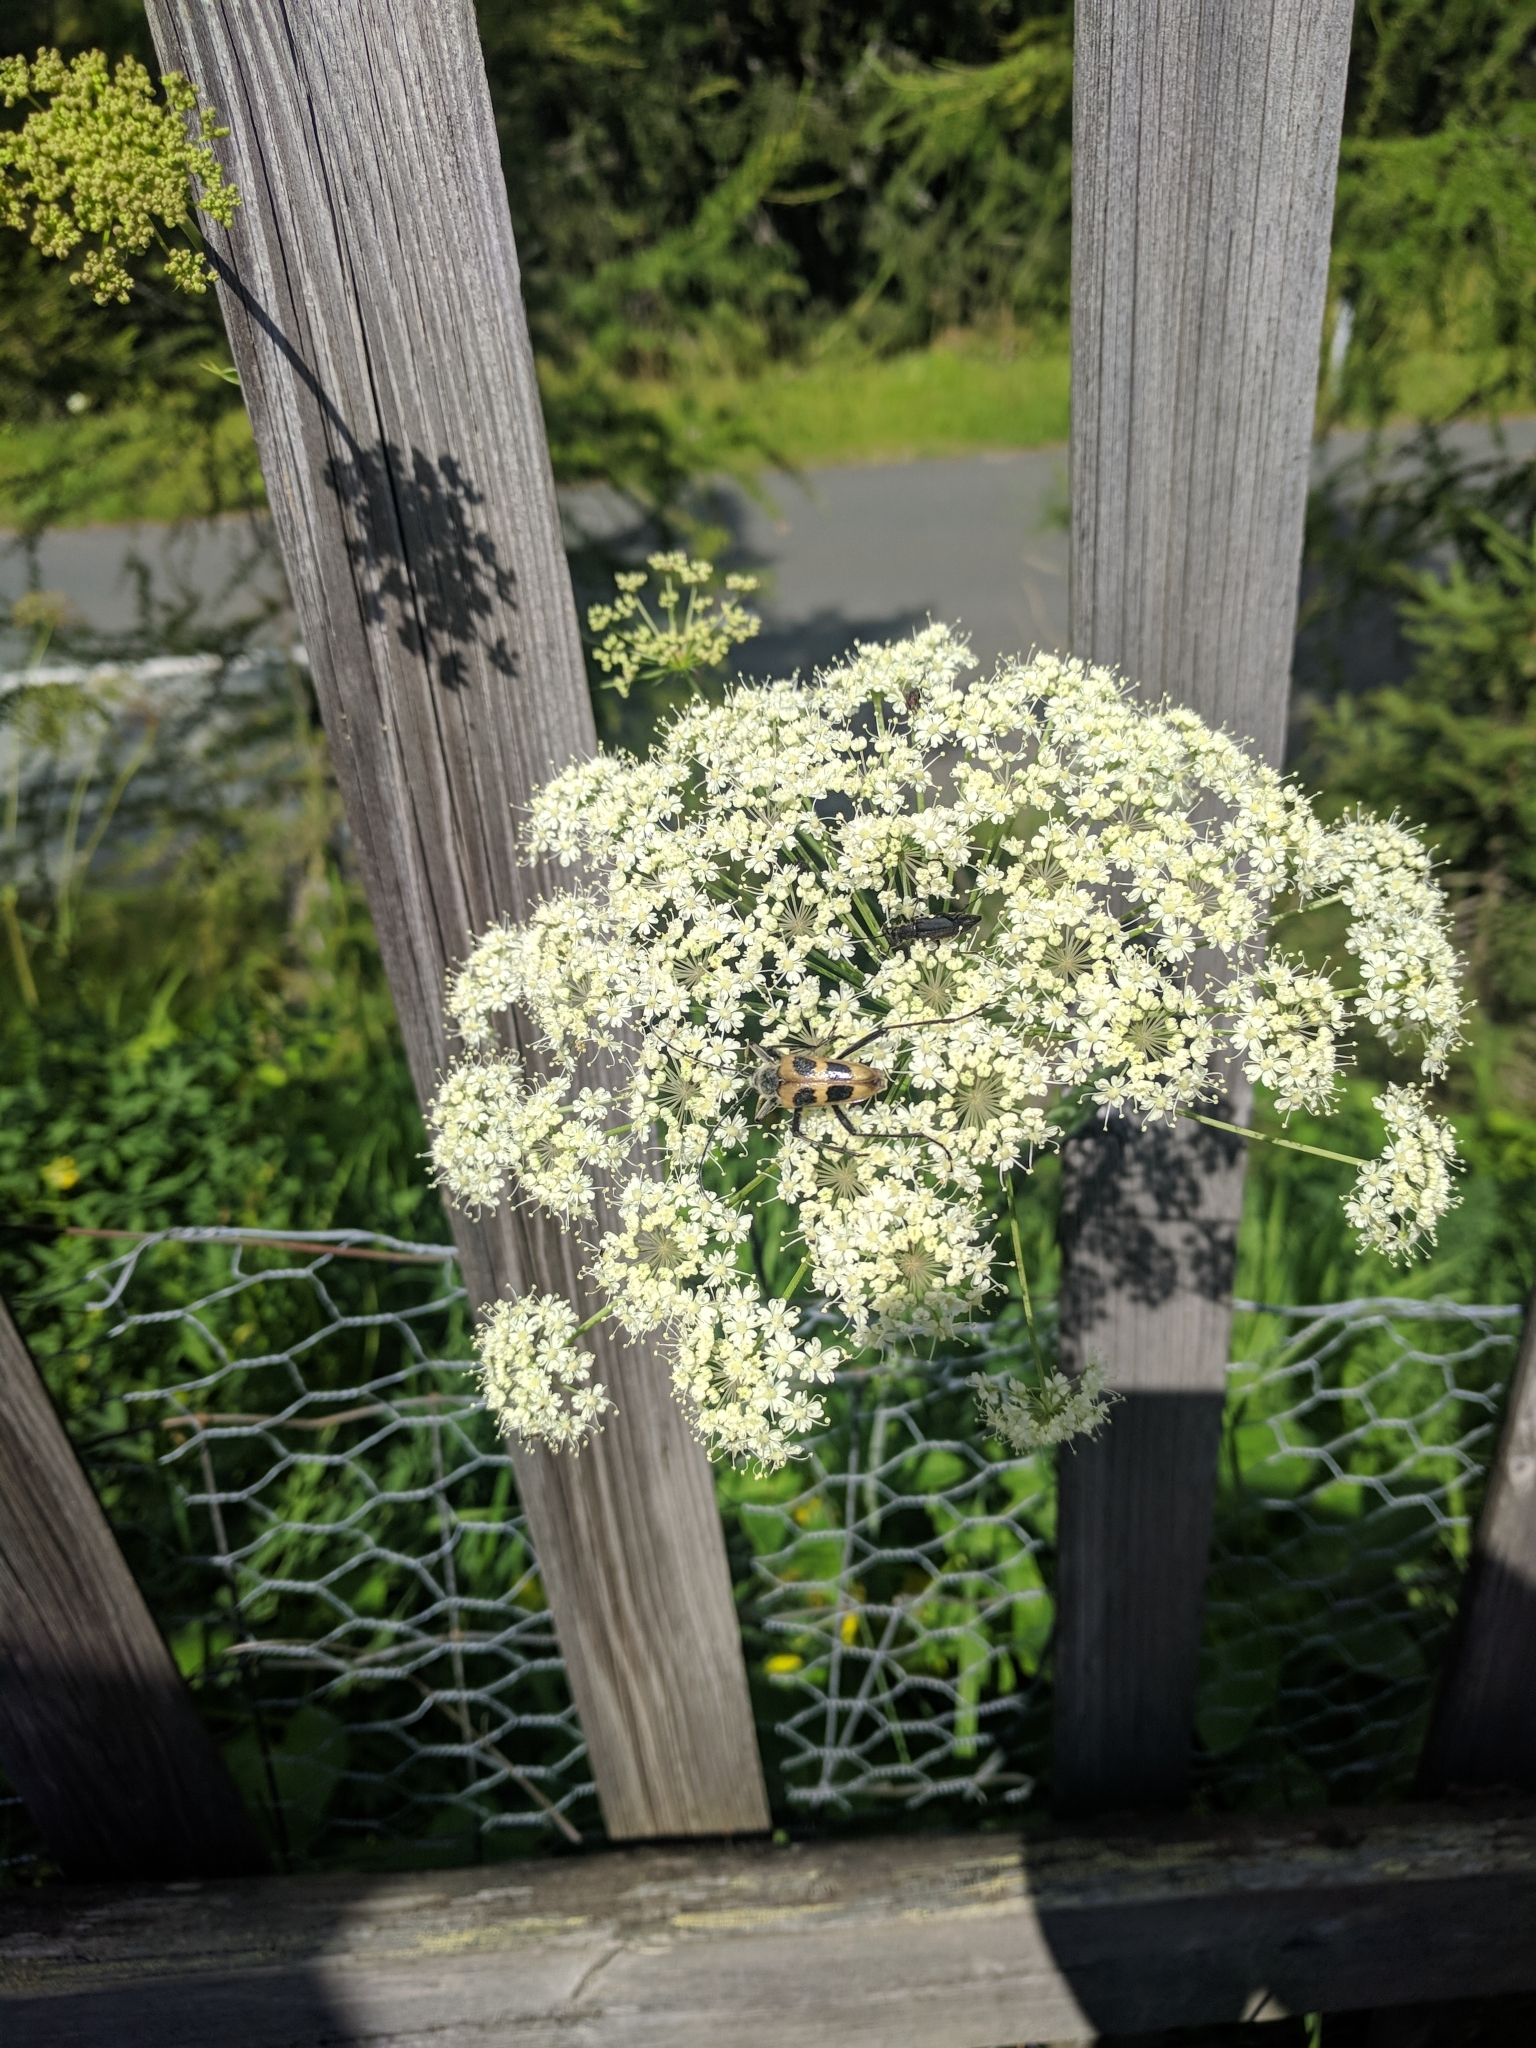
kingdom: Animalia
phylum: Arthropoda
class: Insecta
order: Coleoptera
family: Cerambycidae
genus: Pachyta
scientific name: Pachyta quadrimaculata
